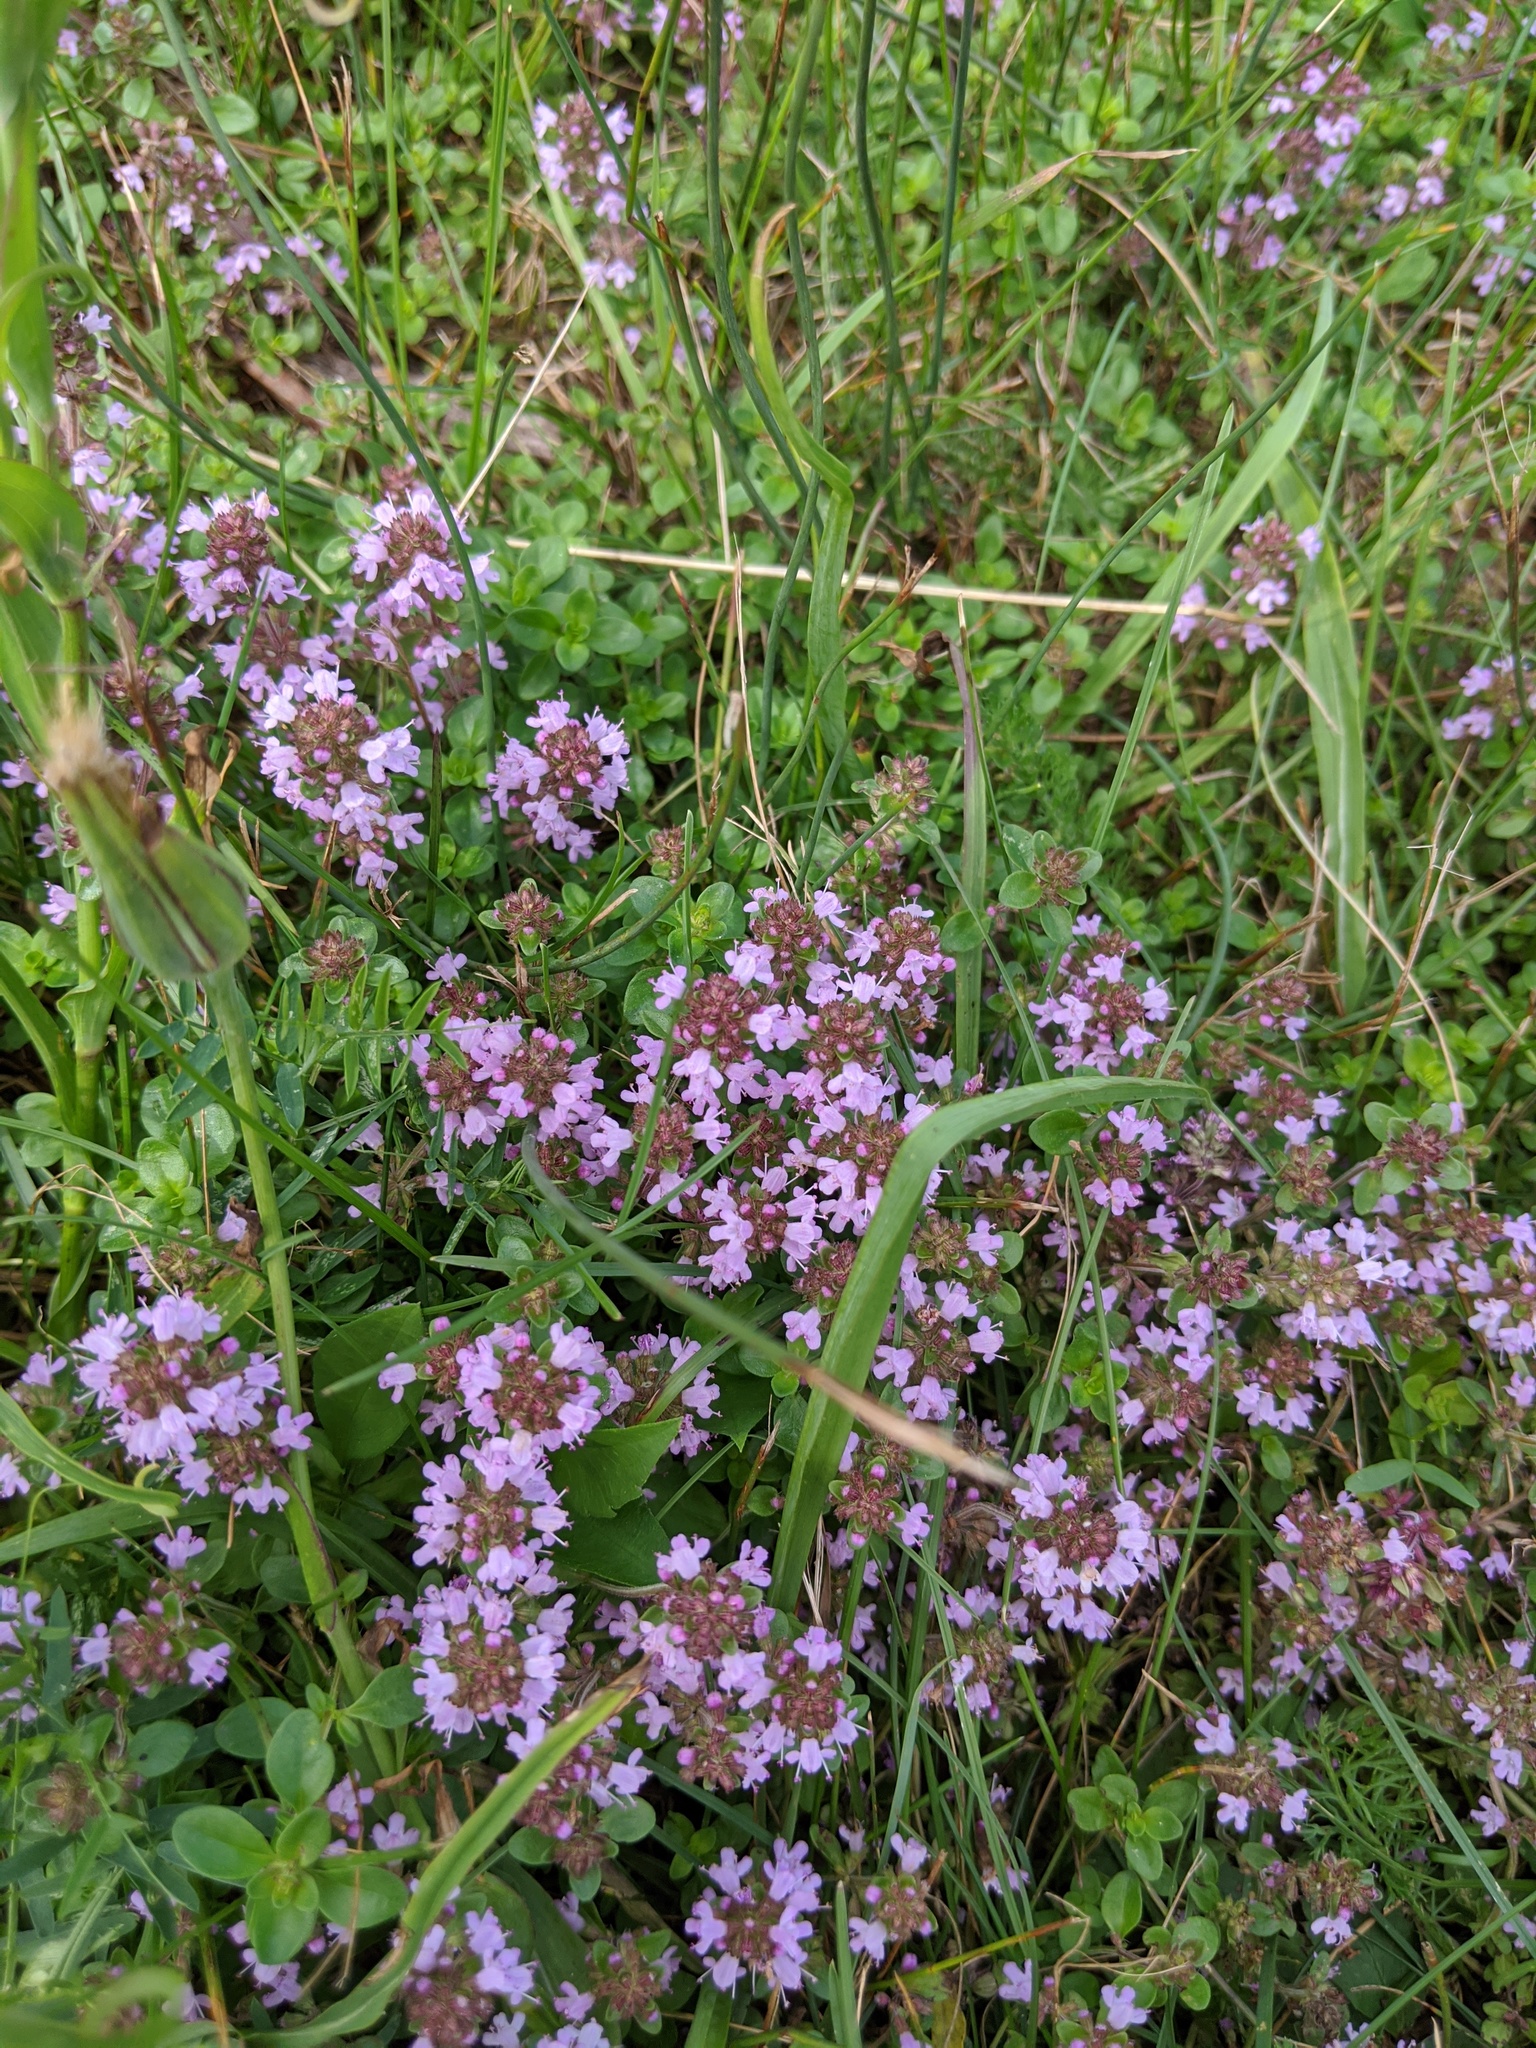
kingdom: Plantae
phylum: Tracheophyta
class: Magnoliopsida
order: Lamiales
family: Lamiaceae
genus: Thymus
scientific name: Thymus pulegioides
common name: Large thyme
